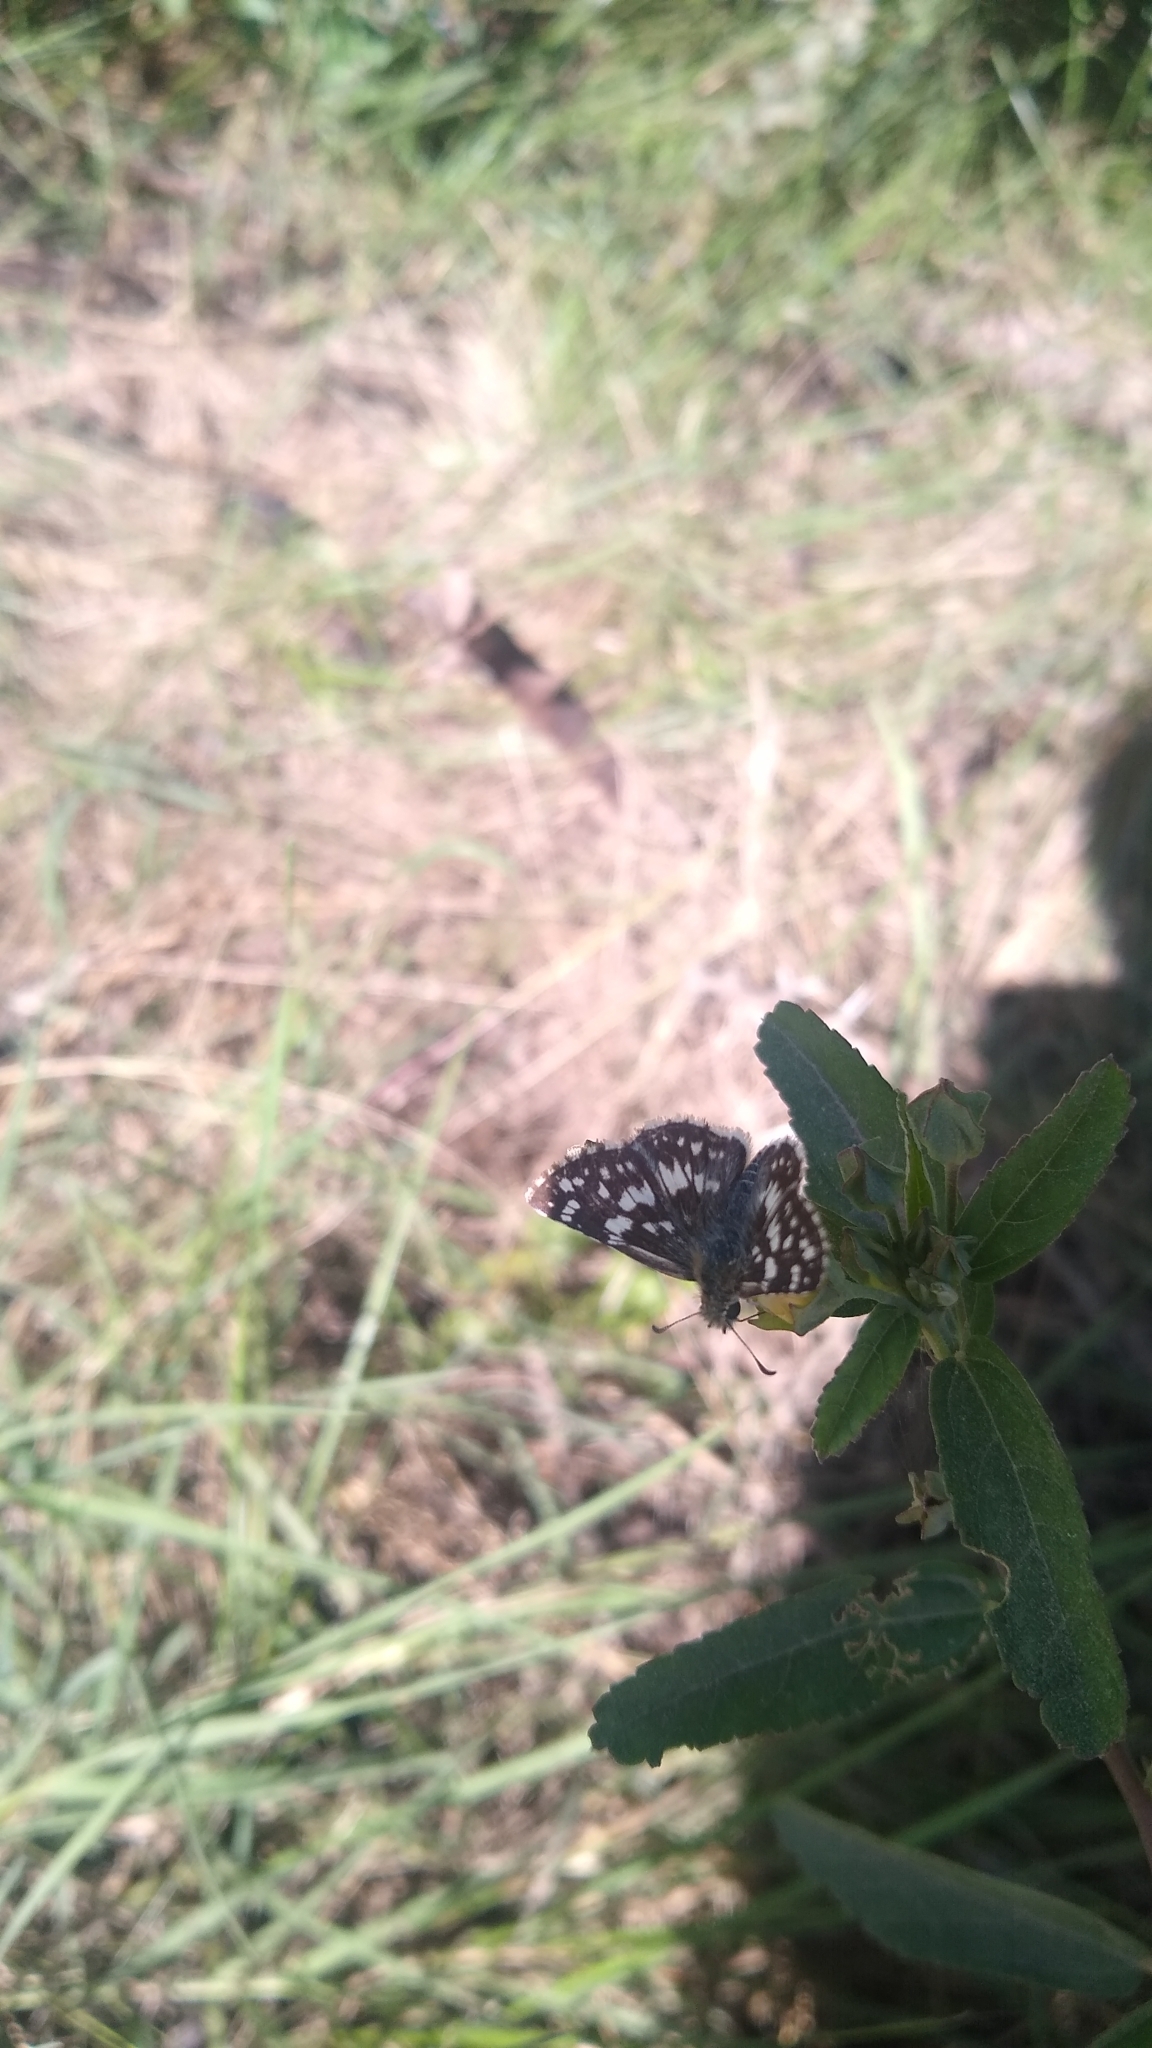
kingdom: Animalia
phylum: Arthropoda
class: Insecta
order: Lepidoptera
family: Hesperiidae
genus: Burnsius
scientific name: Burnsius orcynoides
